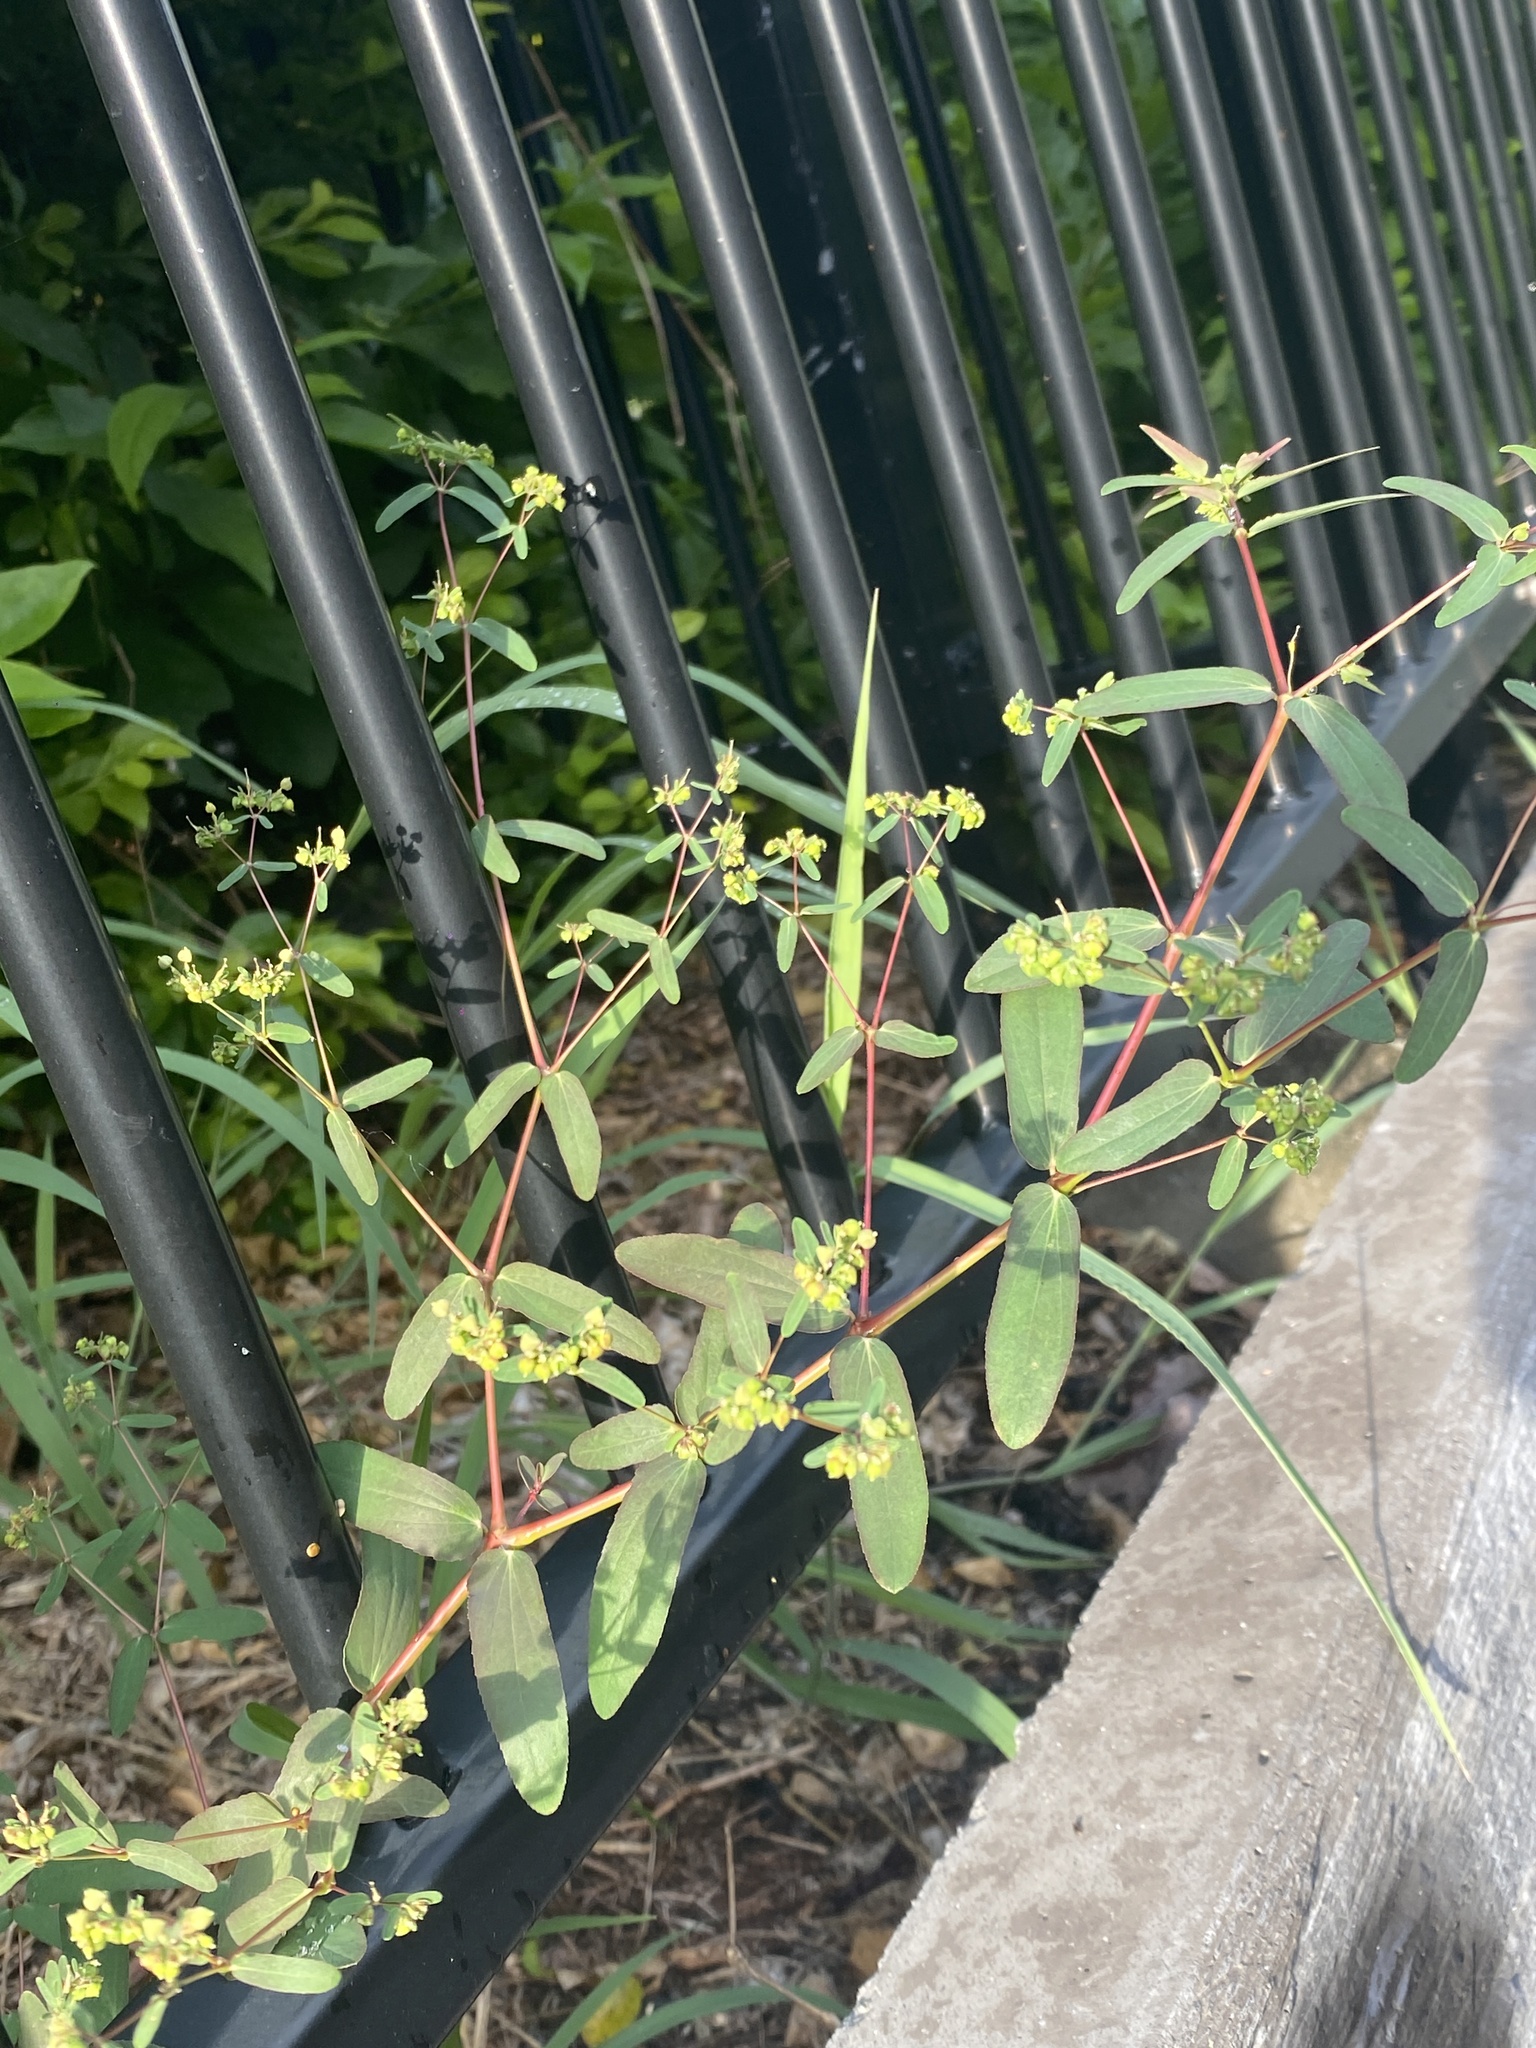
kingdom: Plantae
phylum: Tracheophyta
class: Magnoliopsida
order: Malpighiales
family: Euphorbiaceae
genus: Euphorbia
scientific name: Euphorbia hyssopifolia
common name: Hyssopleaf sandmat
